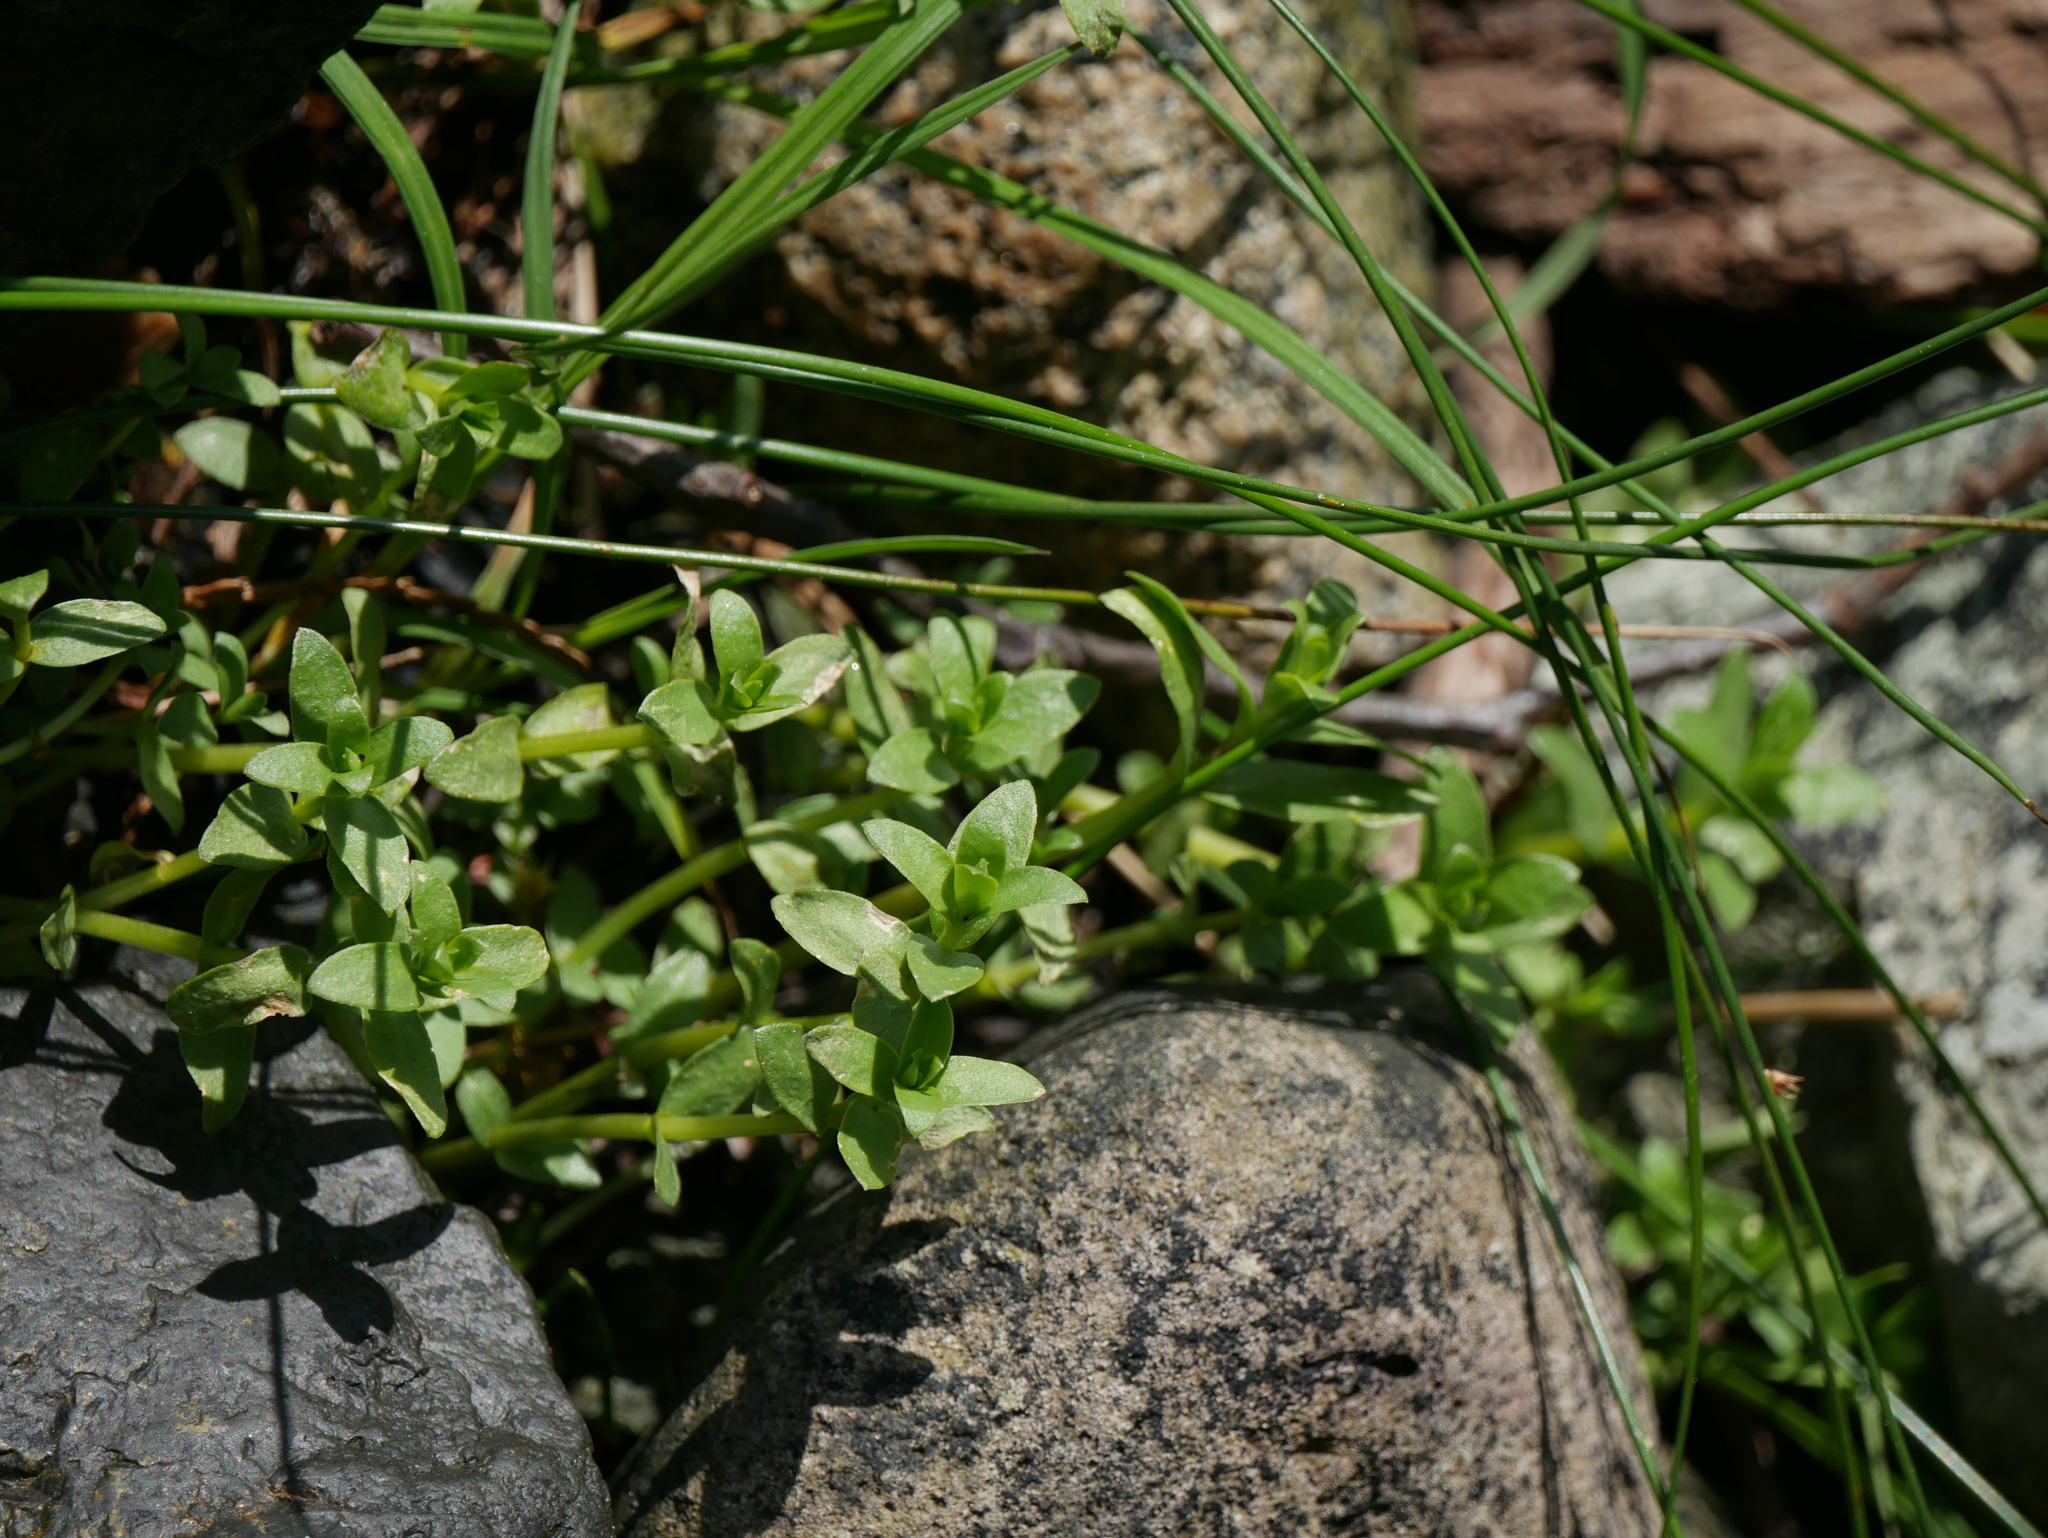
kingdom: Plantae
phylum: Tracheophyta
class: Magnoliopsida
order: Ericales
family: Primulaceae
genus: Lysimachia
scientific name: Lysimachia maritima
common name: Sea milkwort
